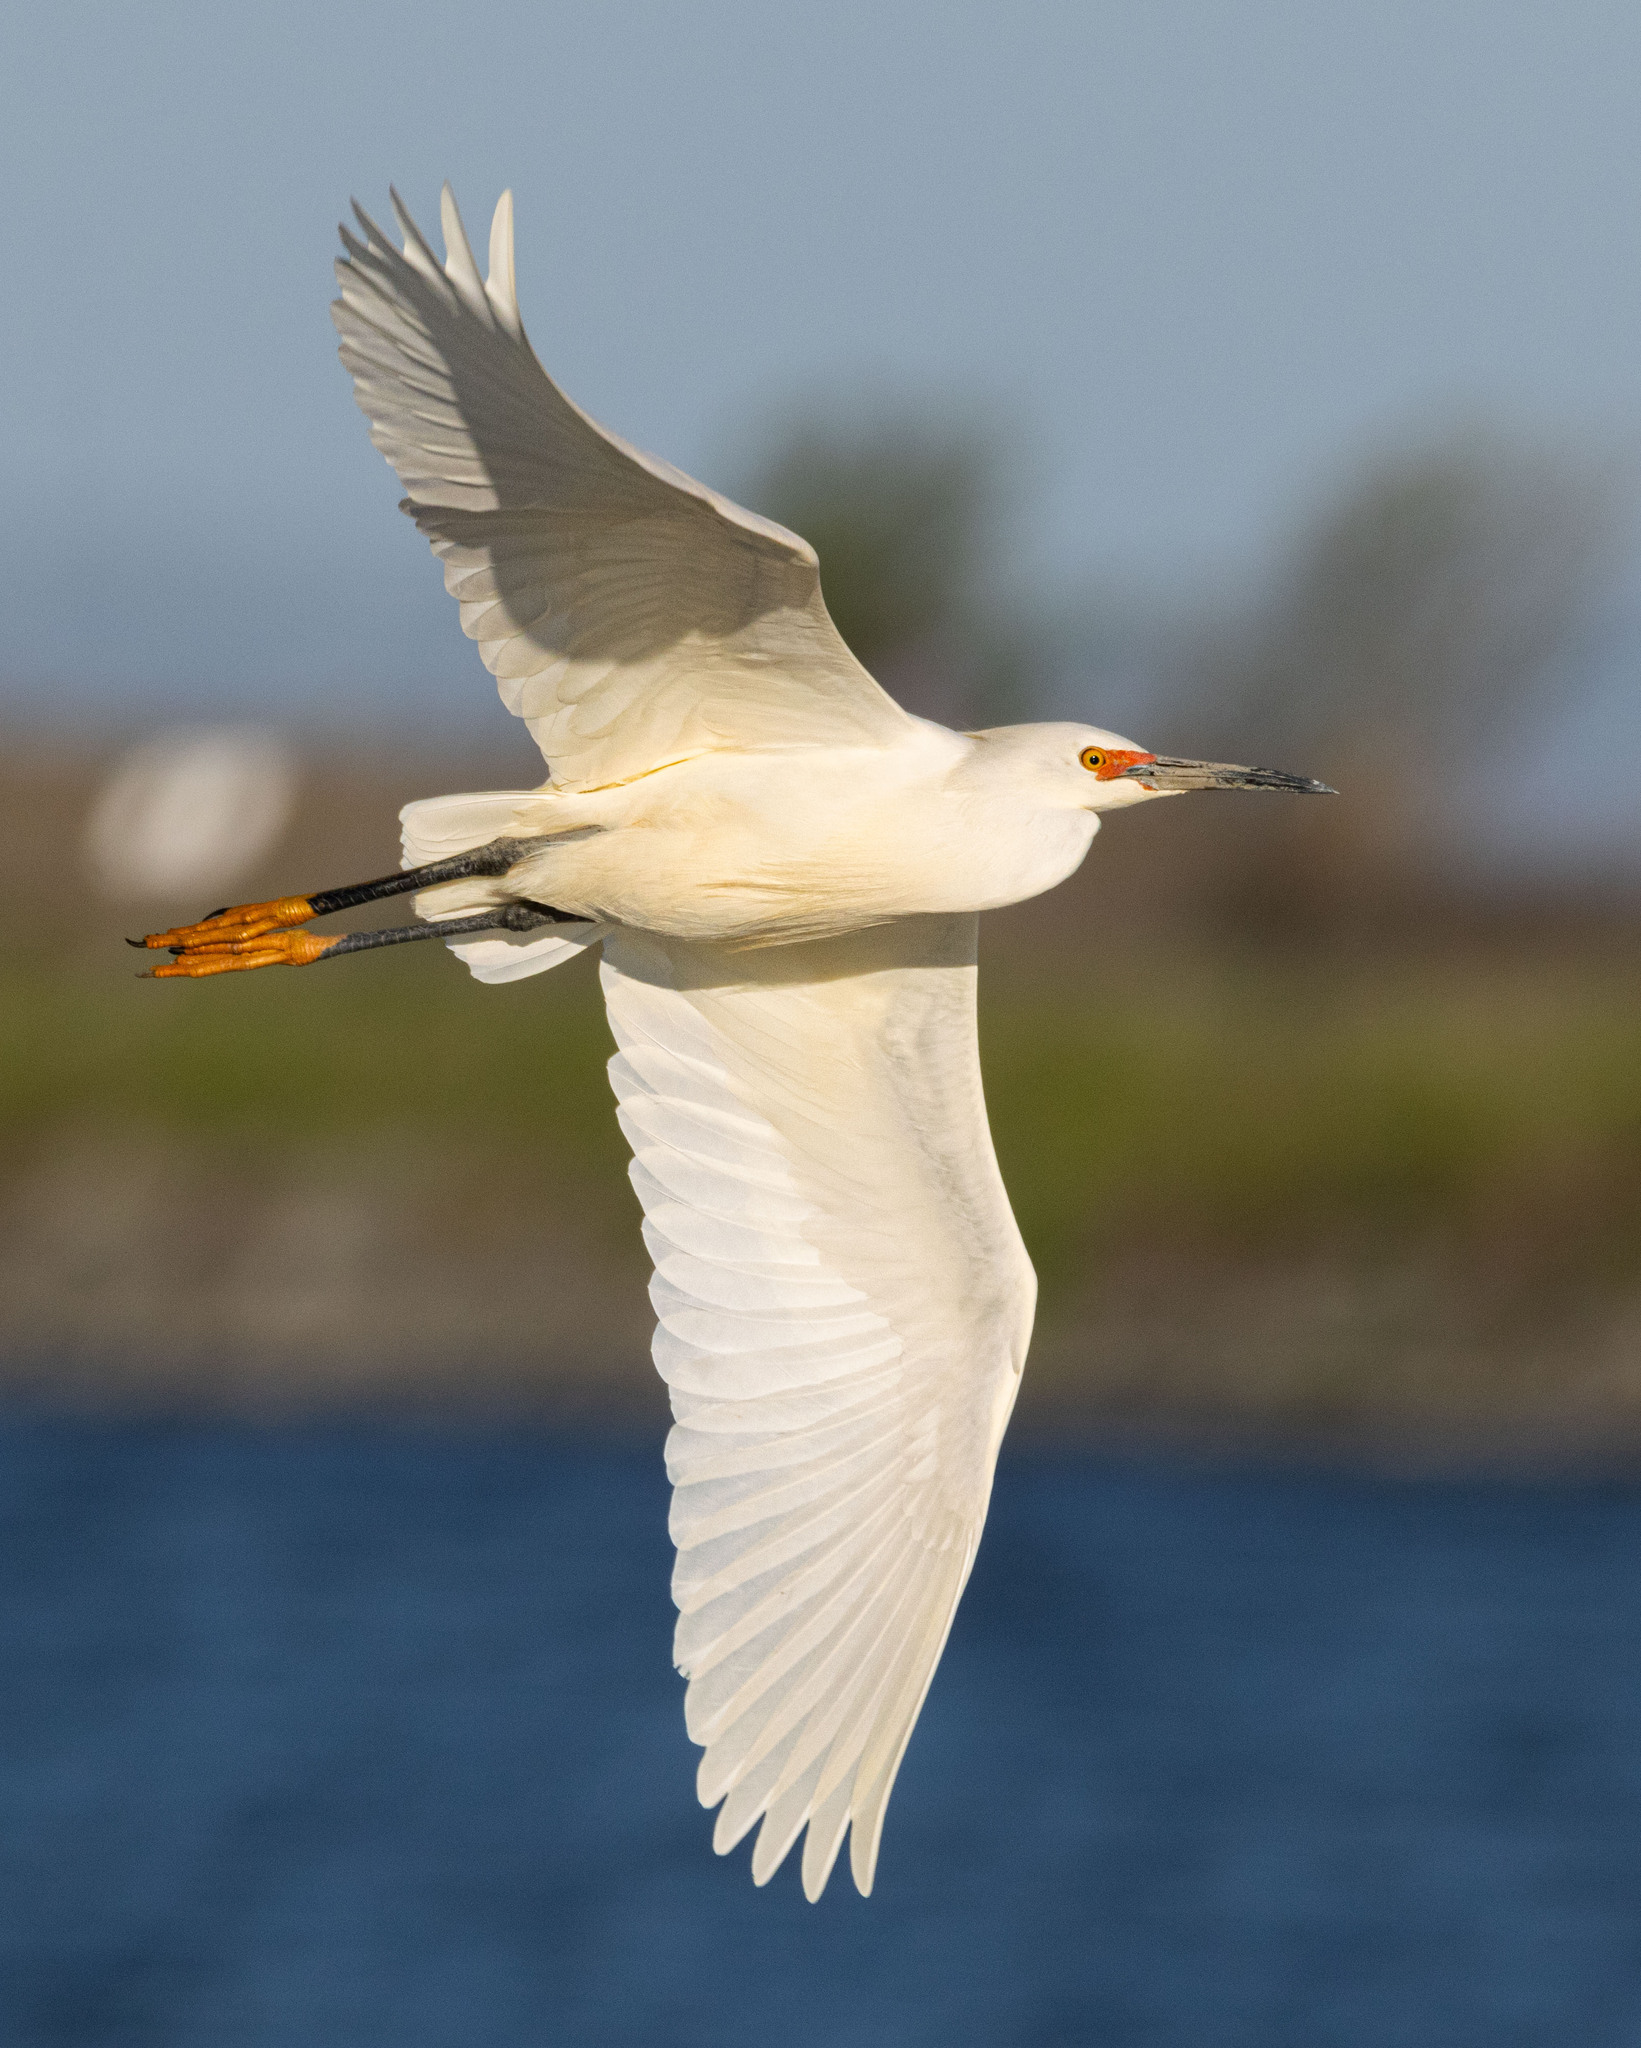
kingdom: Animalia
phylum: Chordata
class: Aves
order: Pelecaniformes
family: Ardeidae
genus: Egretta
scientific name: Egretta thula
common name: Snowy egret
